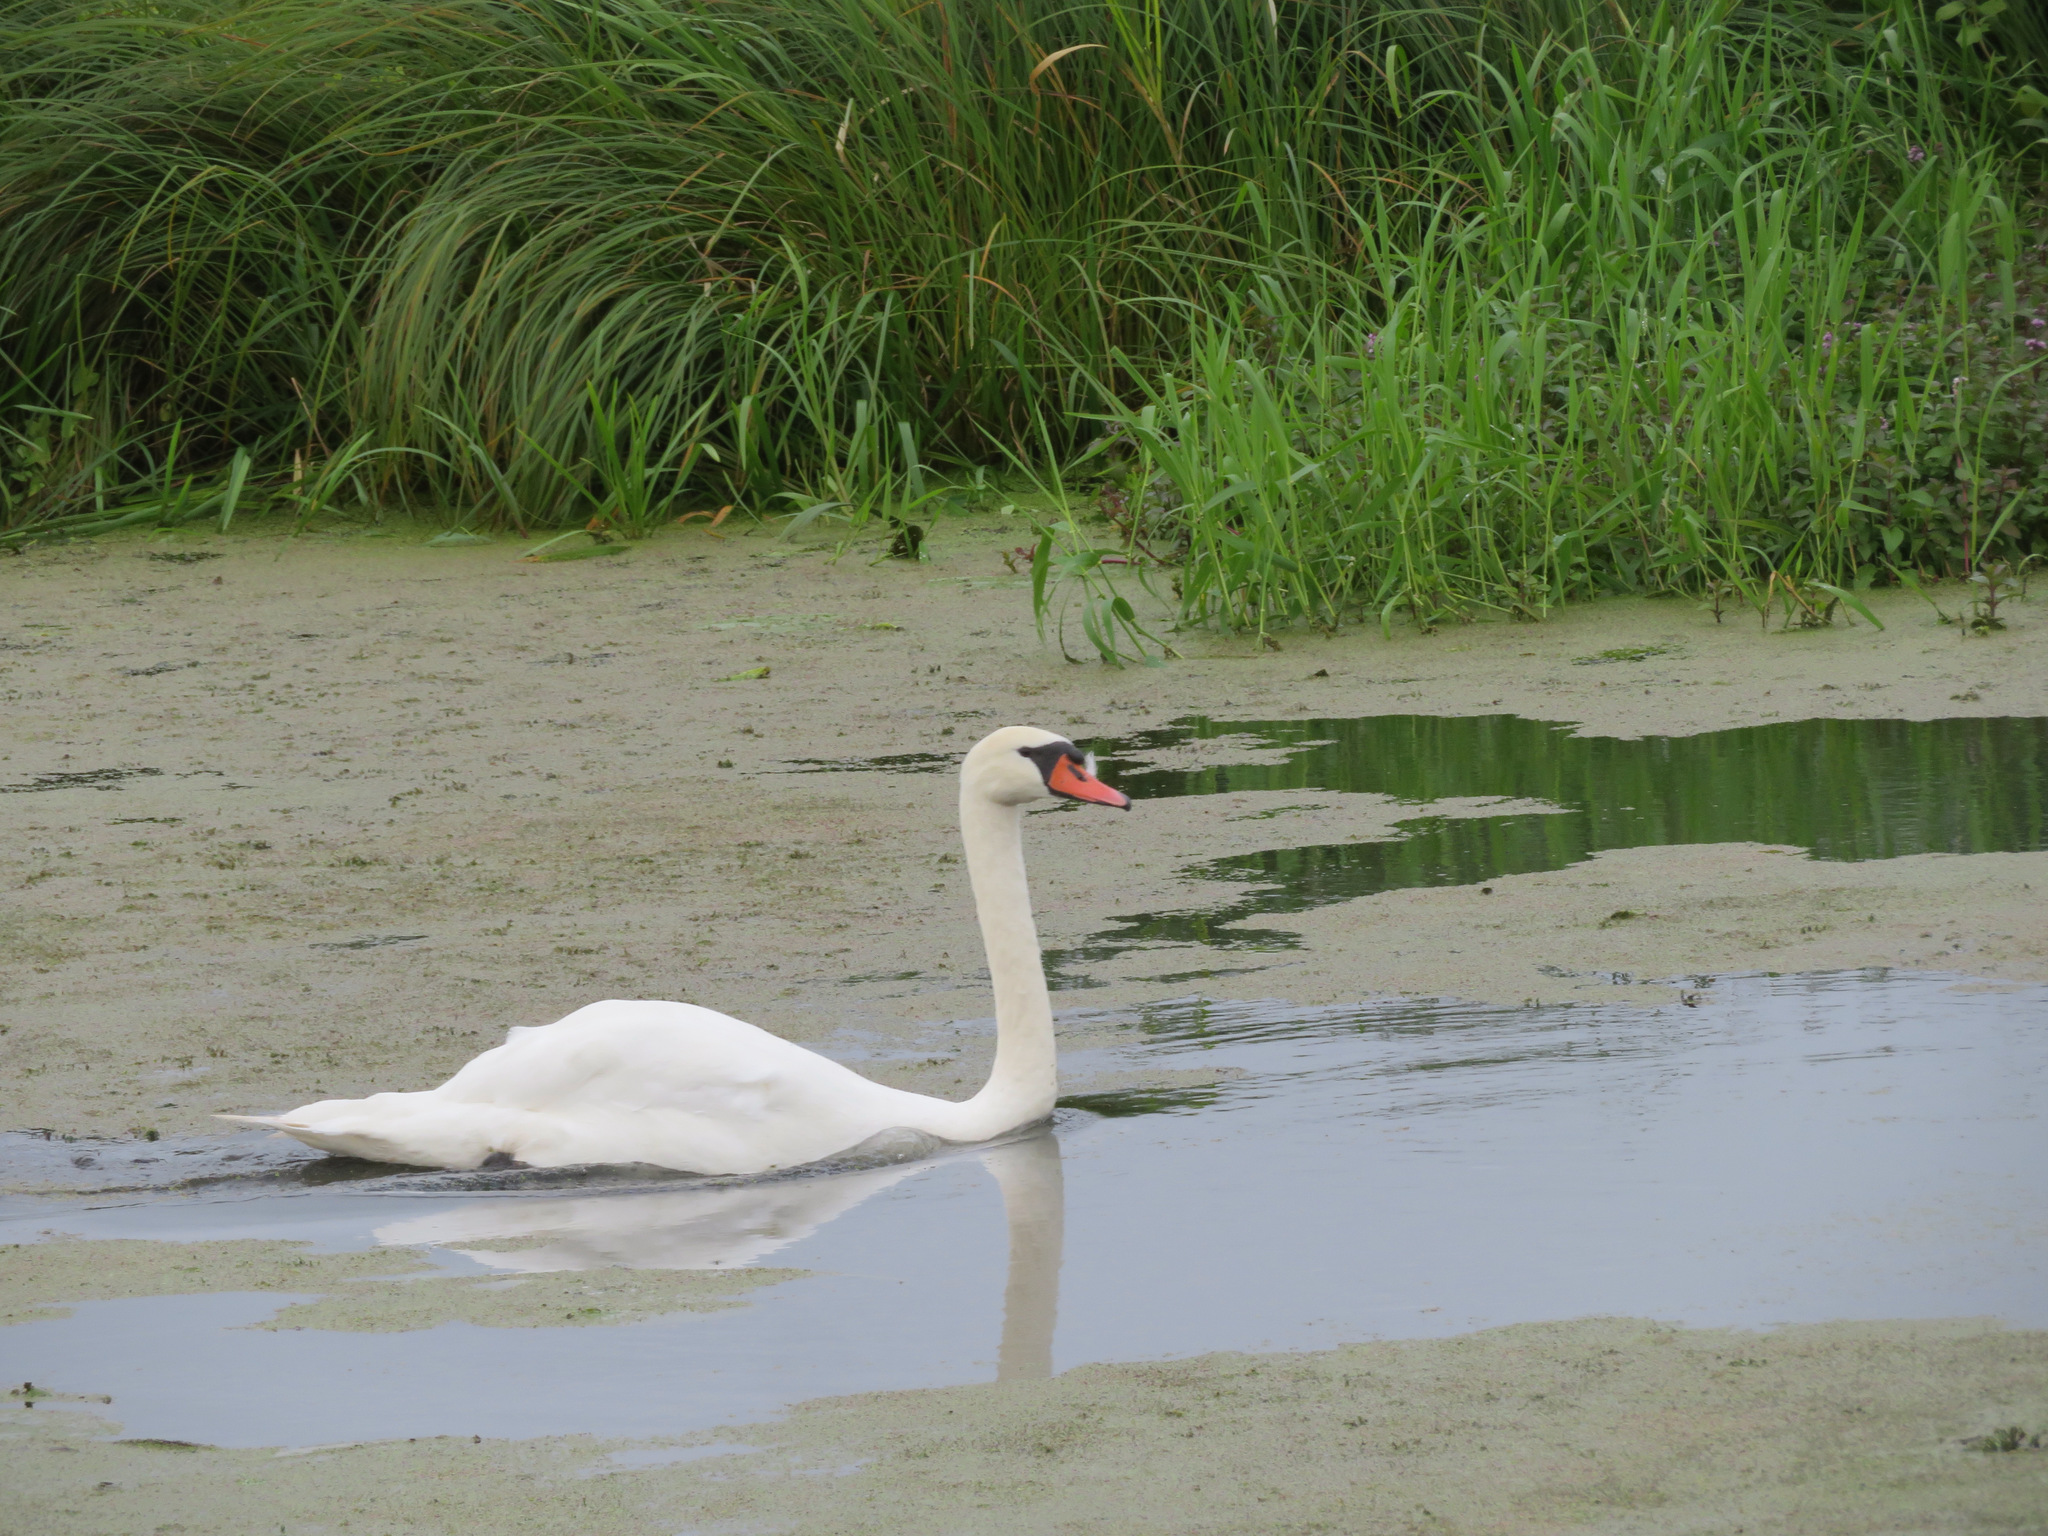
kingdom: Animalia
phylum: Chordata
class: Aves
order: Anseriformes
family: Anatidae
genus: Cygnus
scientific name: Cygnus olor
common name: Mute swan
